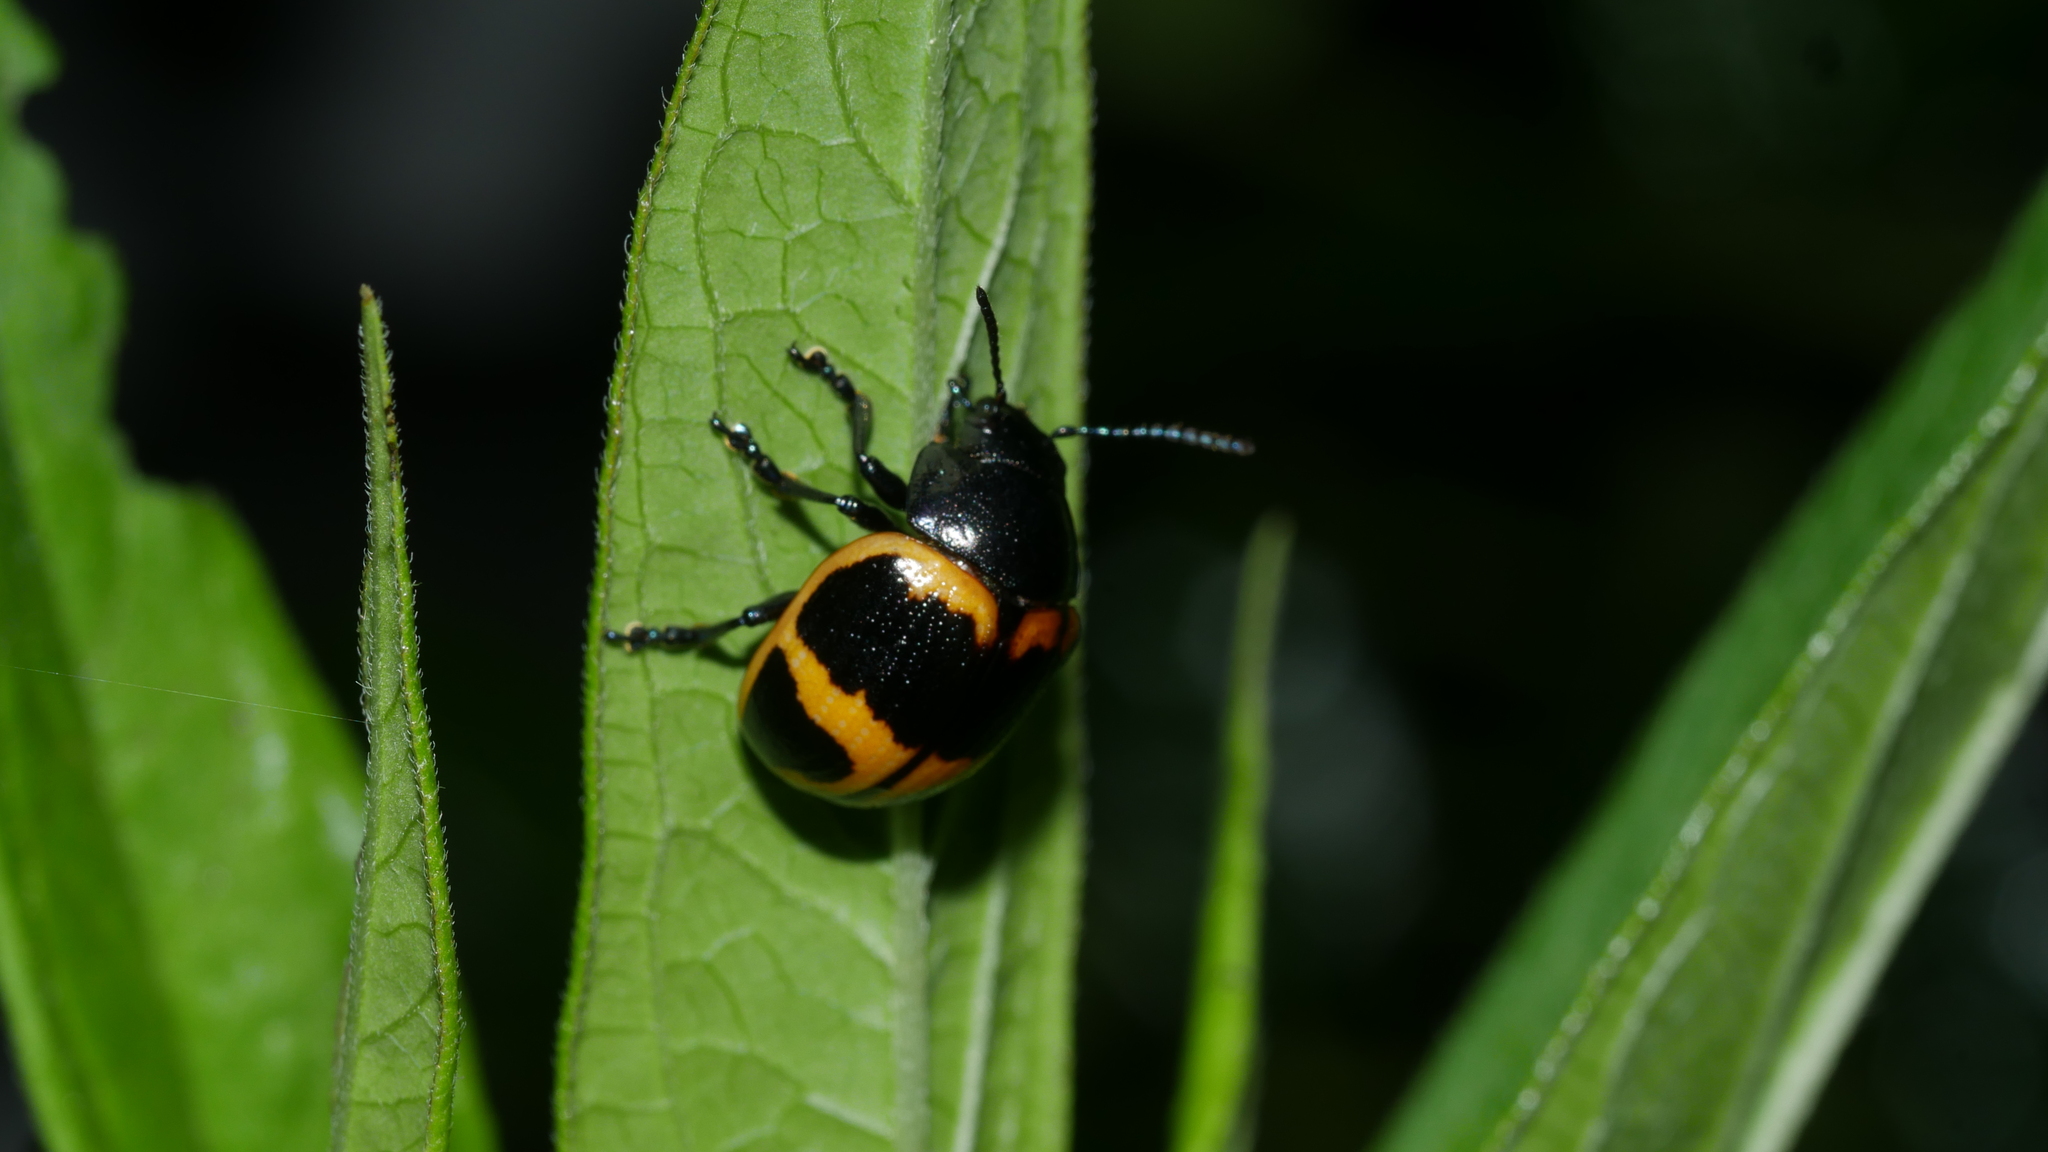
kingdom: Animalia
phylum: Arthropoda
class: Insecta
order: Coleoptera
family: Chrysomelidae
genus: Labidomera
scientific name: Labidomera clivicollis
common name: Swamp milkweed leaf beetle
